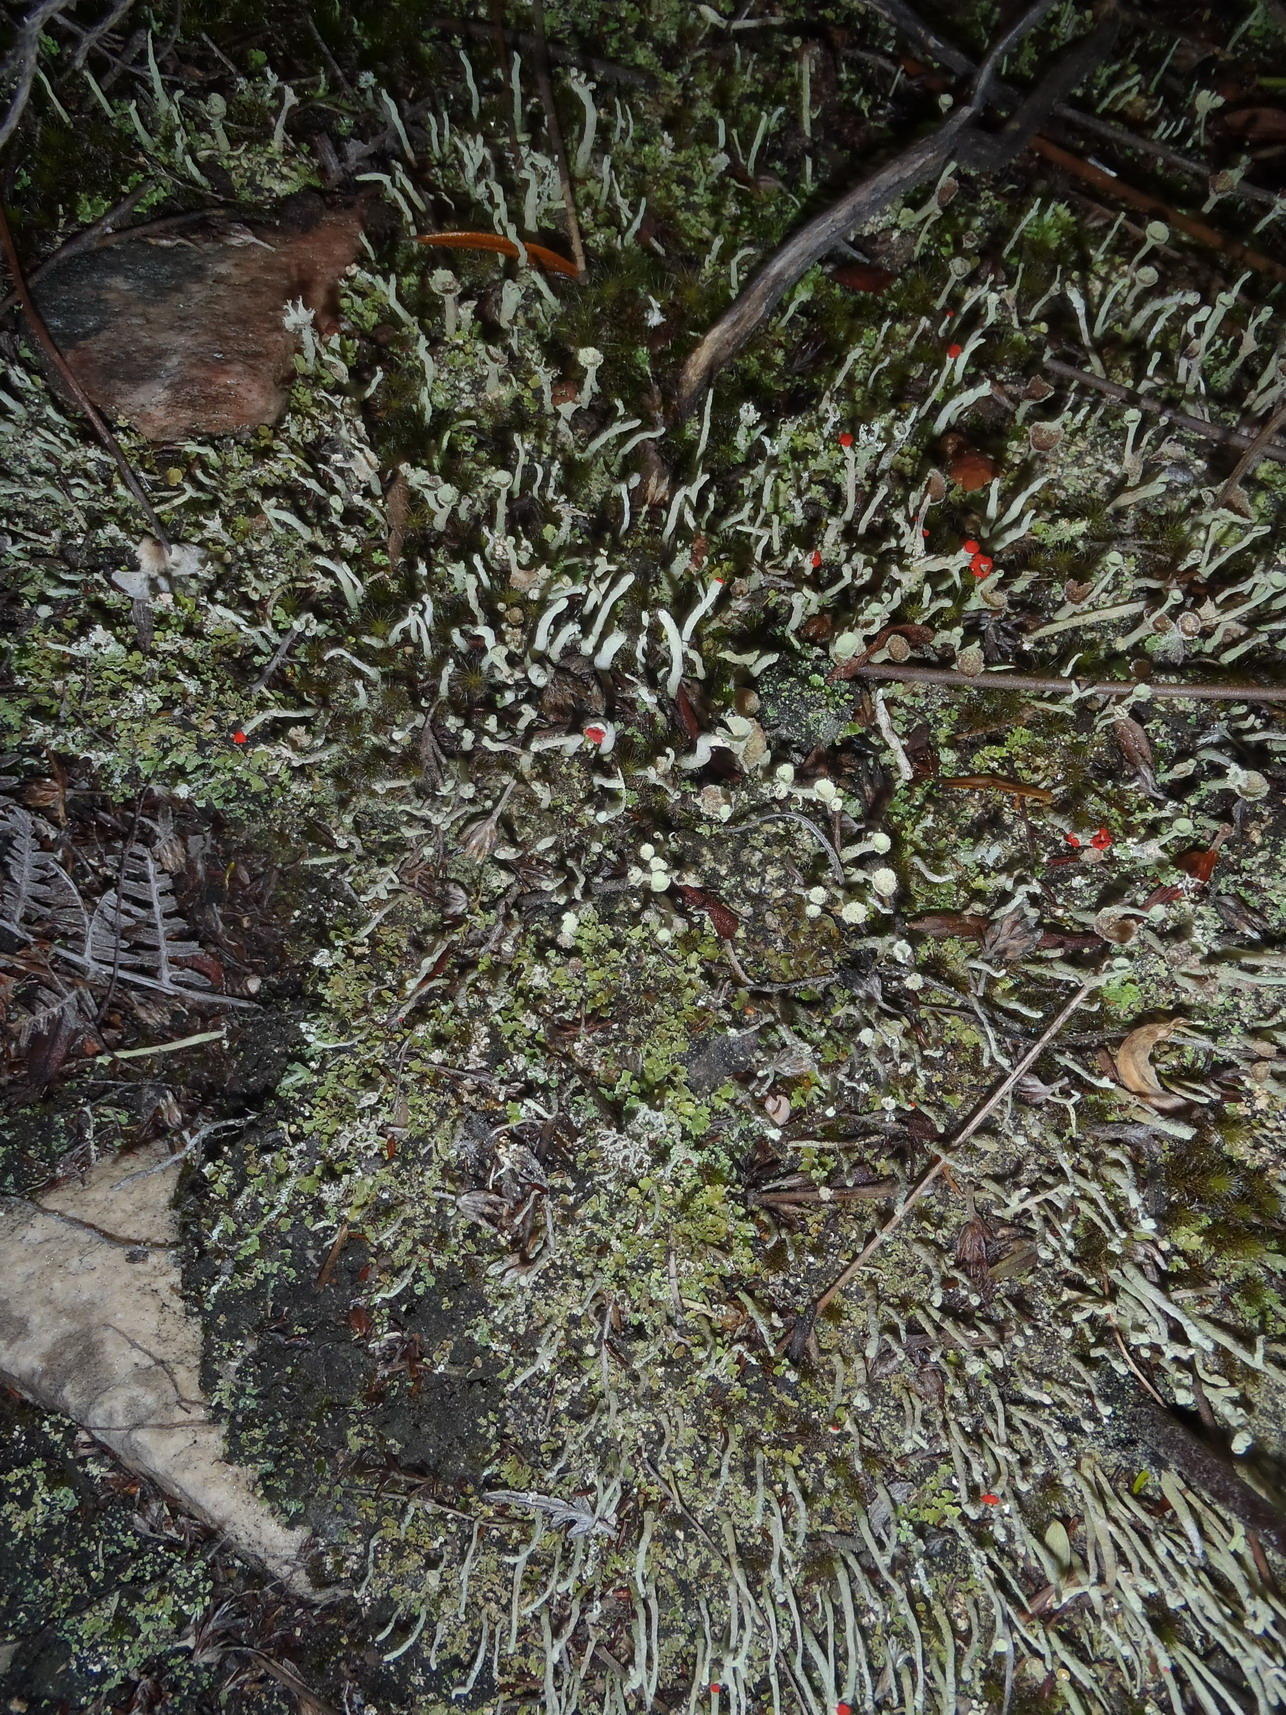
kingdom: Fungi
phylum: Ascomycota
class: Lecanoromycetes
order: Lecanorales
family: Cladoniaceae
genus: Cladonia
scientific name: Cladonia macilenta
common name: Lipstick powderhorn
